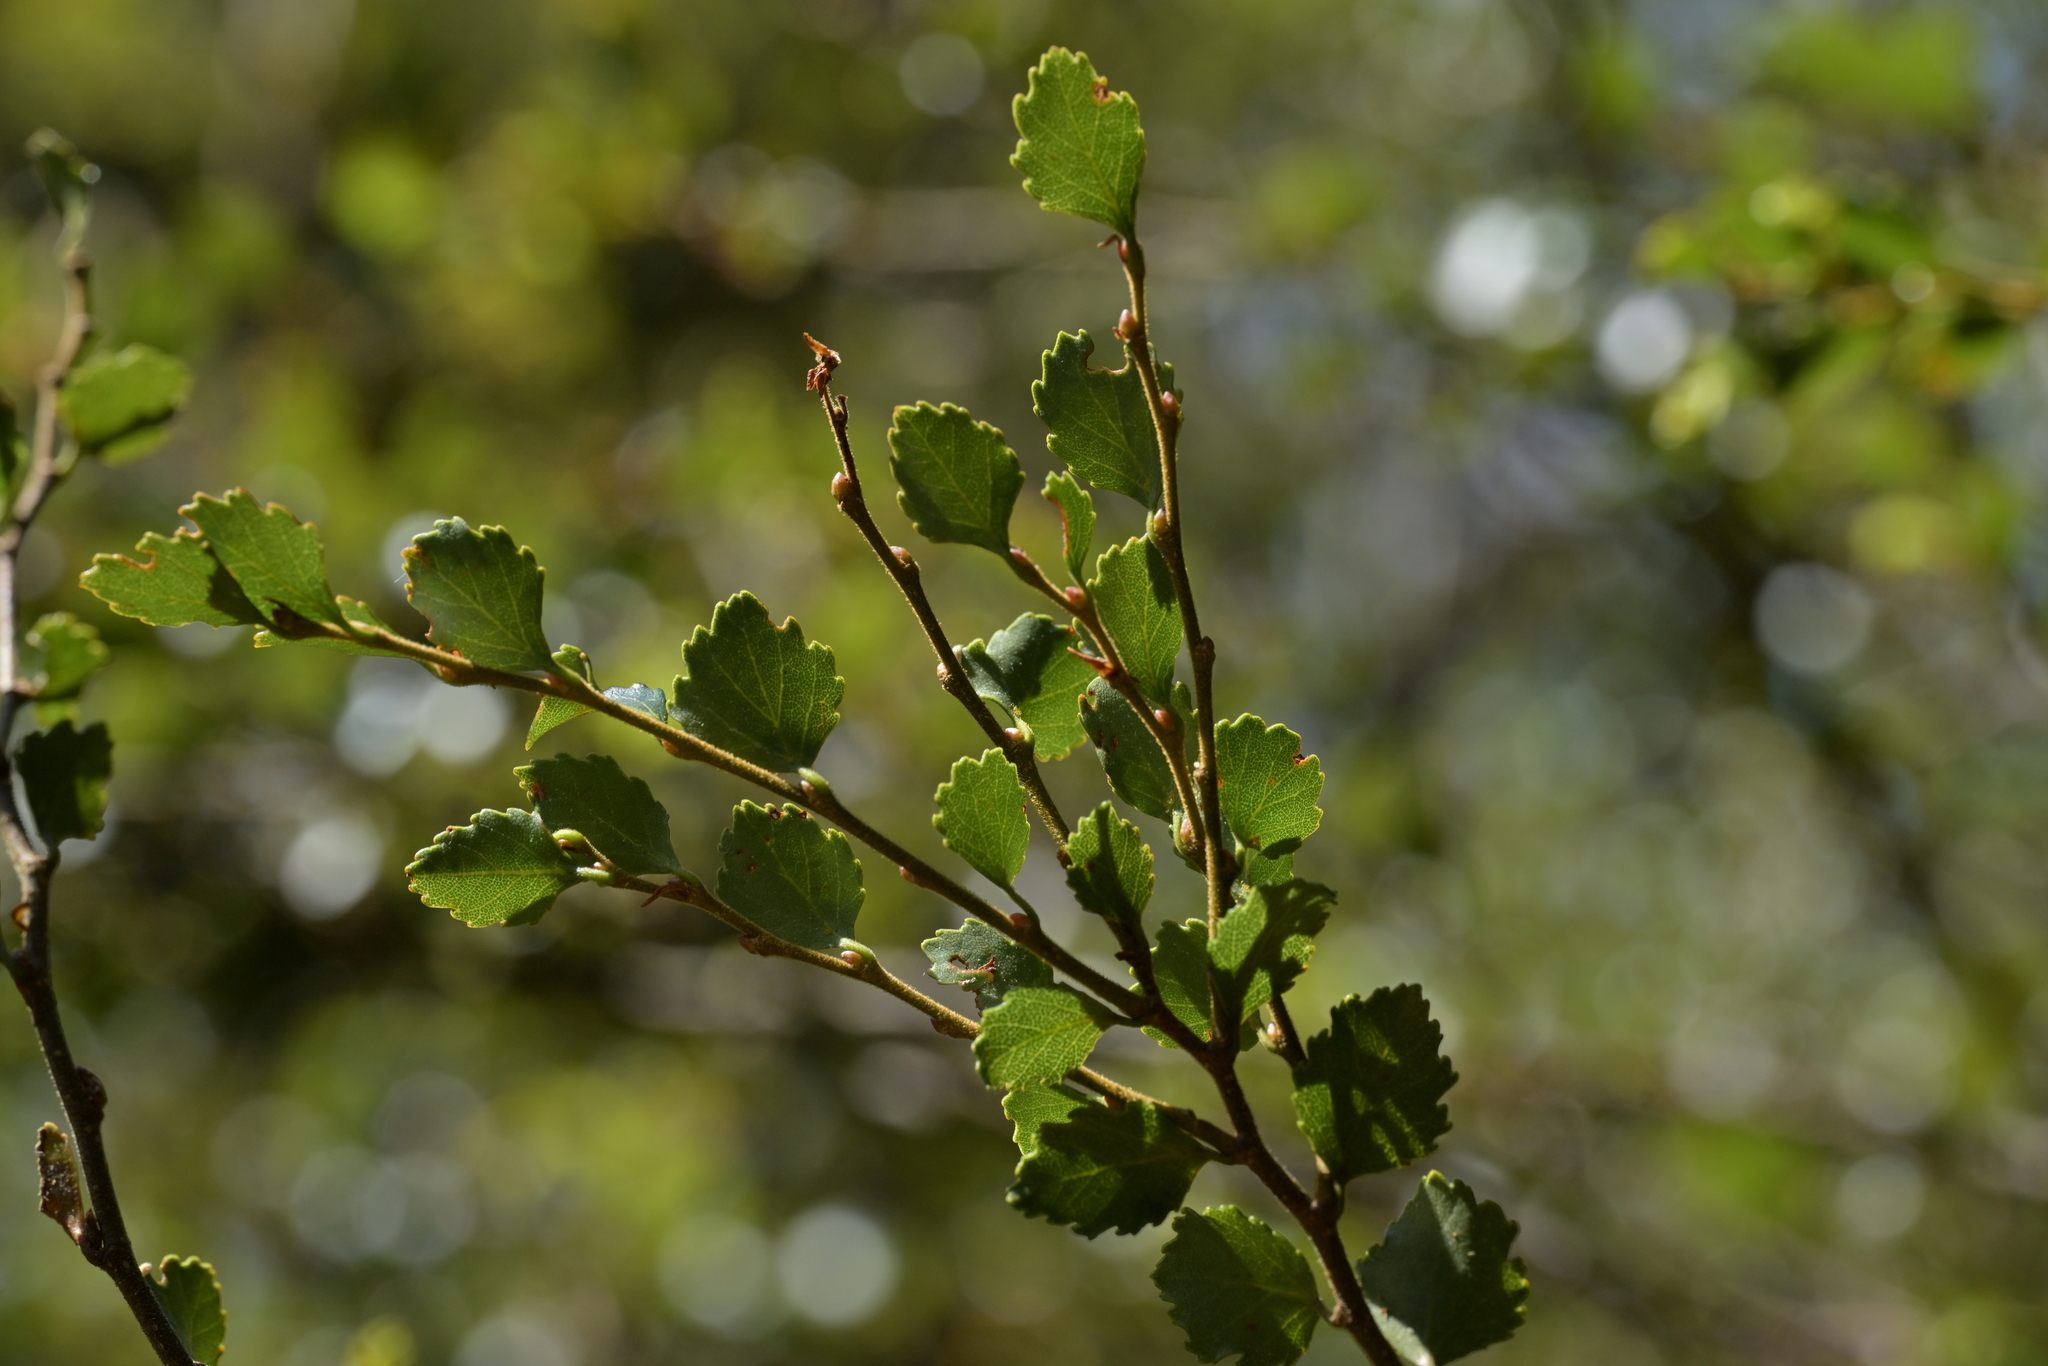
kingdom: Plantae
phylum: Tracheophyta
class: Magnoliopsida
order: Fagales
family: Nothofagaceae
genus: Nothofagus
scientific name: Nothofagus menziesii
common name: Silver beech
